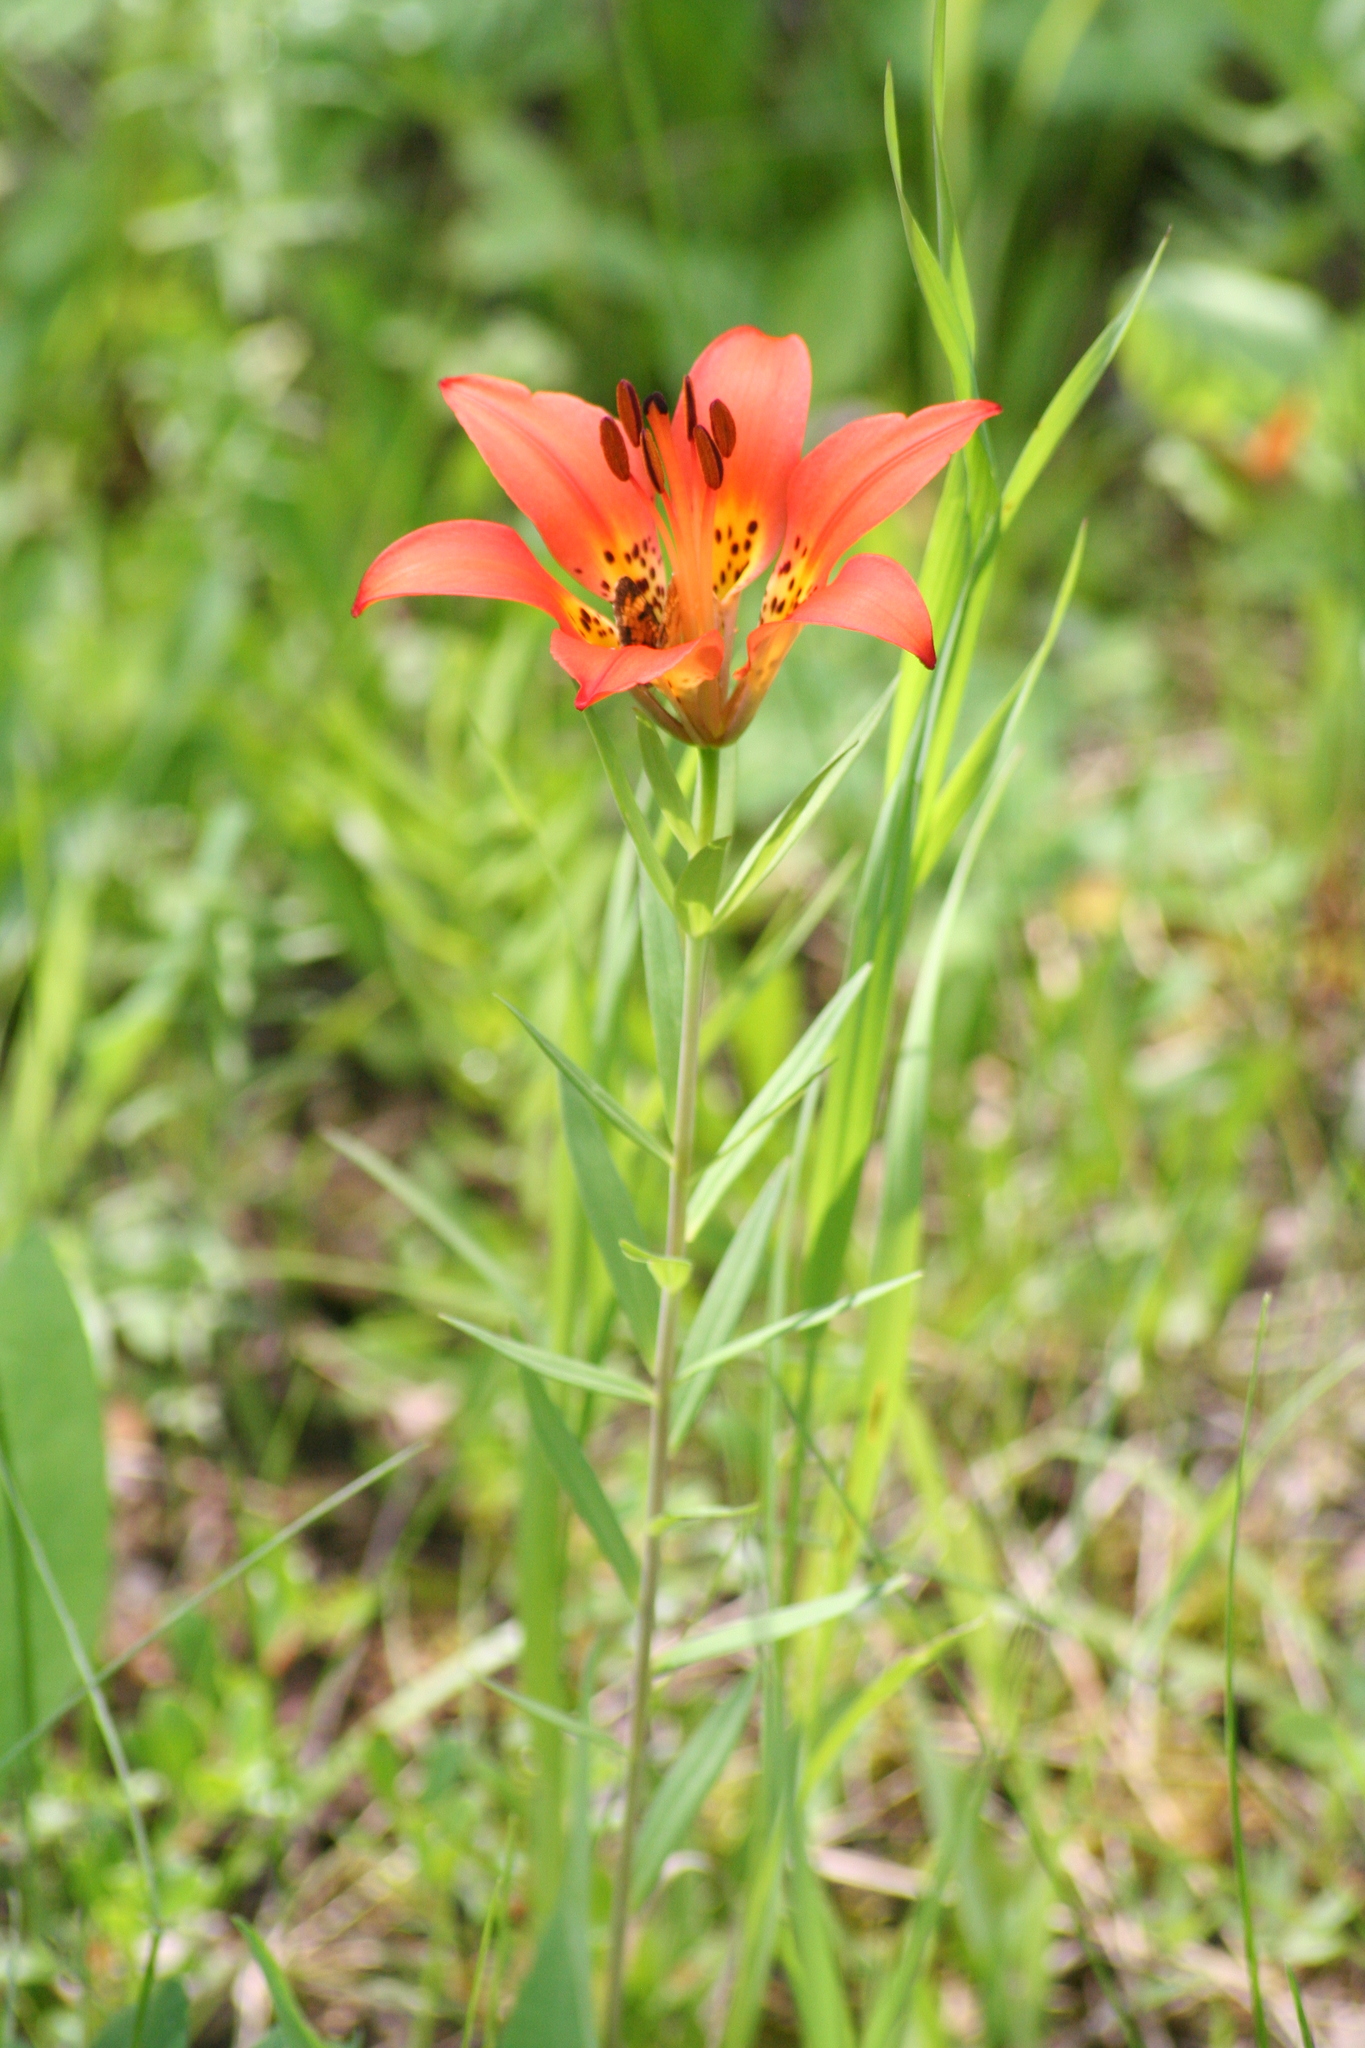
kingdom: Plantae
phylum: Tracheophyta
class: Liliopsida
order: Liliales
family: Liliaceae
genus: Lilium
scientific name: Lilium philadelphicum
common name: Red lily
